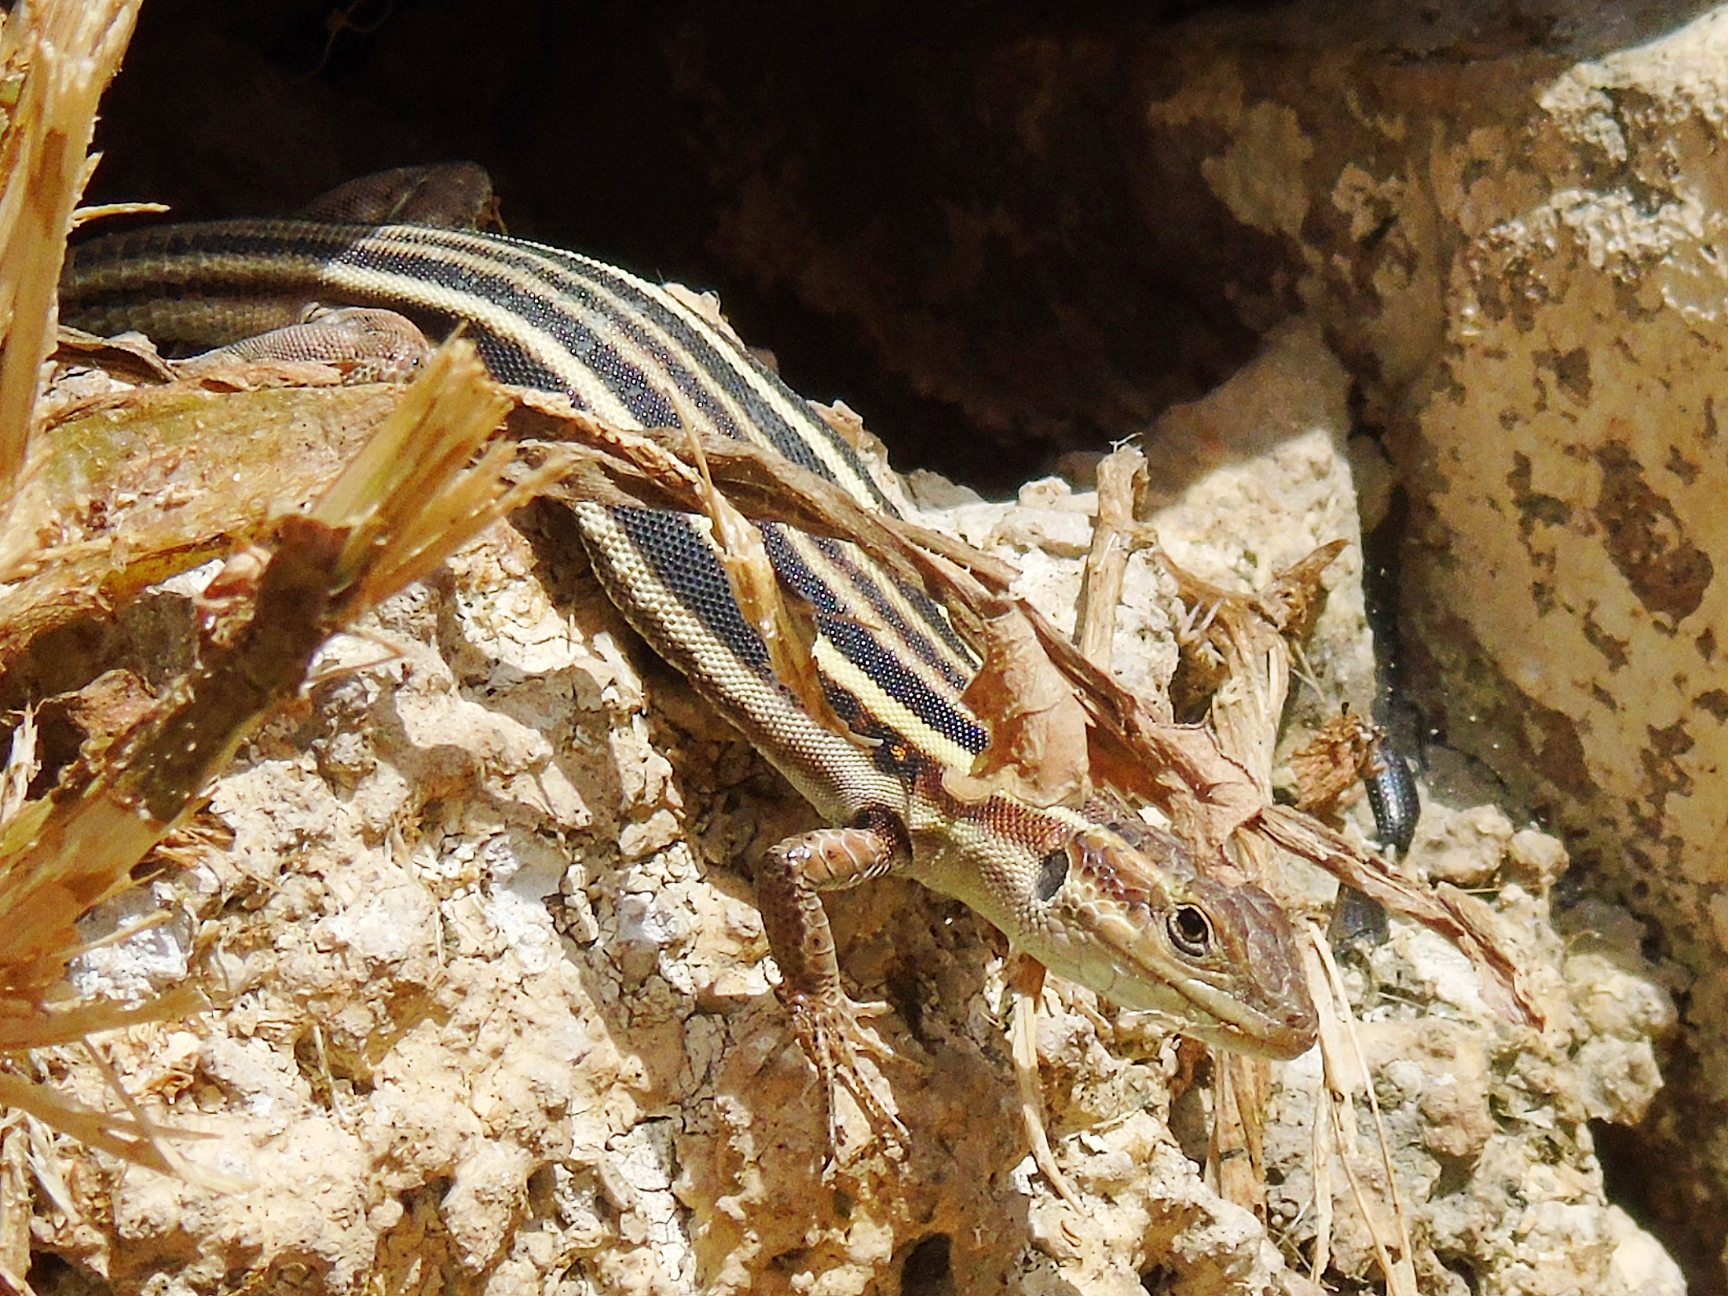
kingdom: Animalia
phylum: Chordata
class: Squamata
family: Lacertidae
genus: Podarcis
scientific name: Podarcis peloponnesiacus
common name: Peloponnese wall lizard
